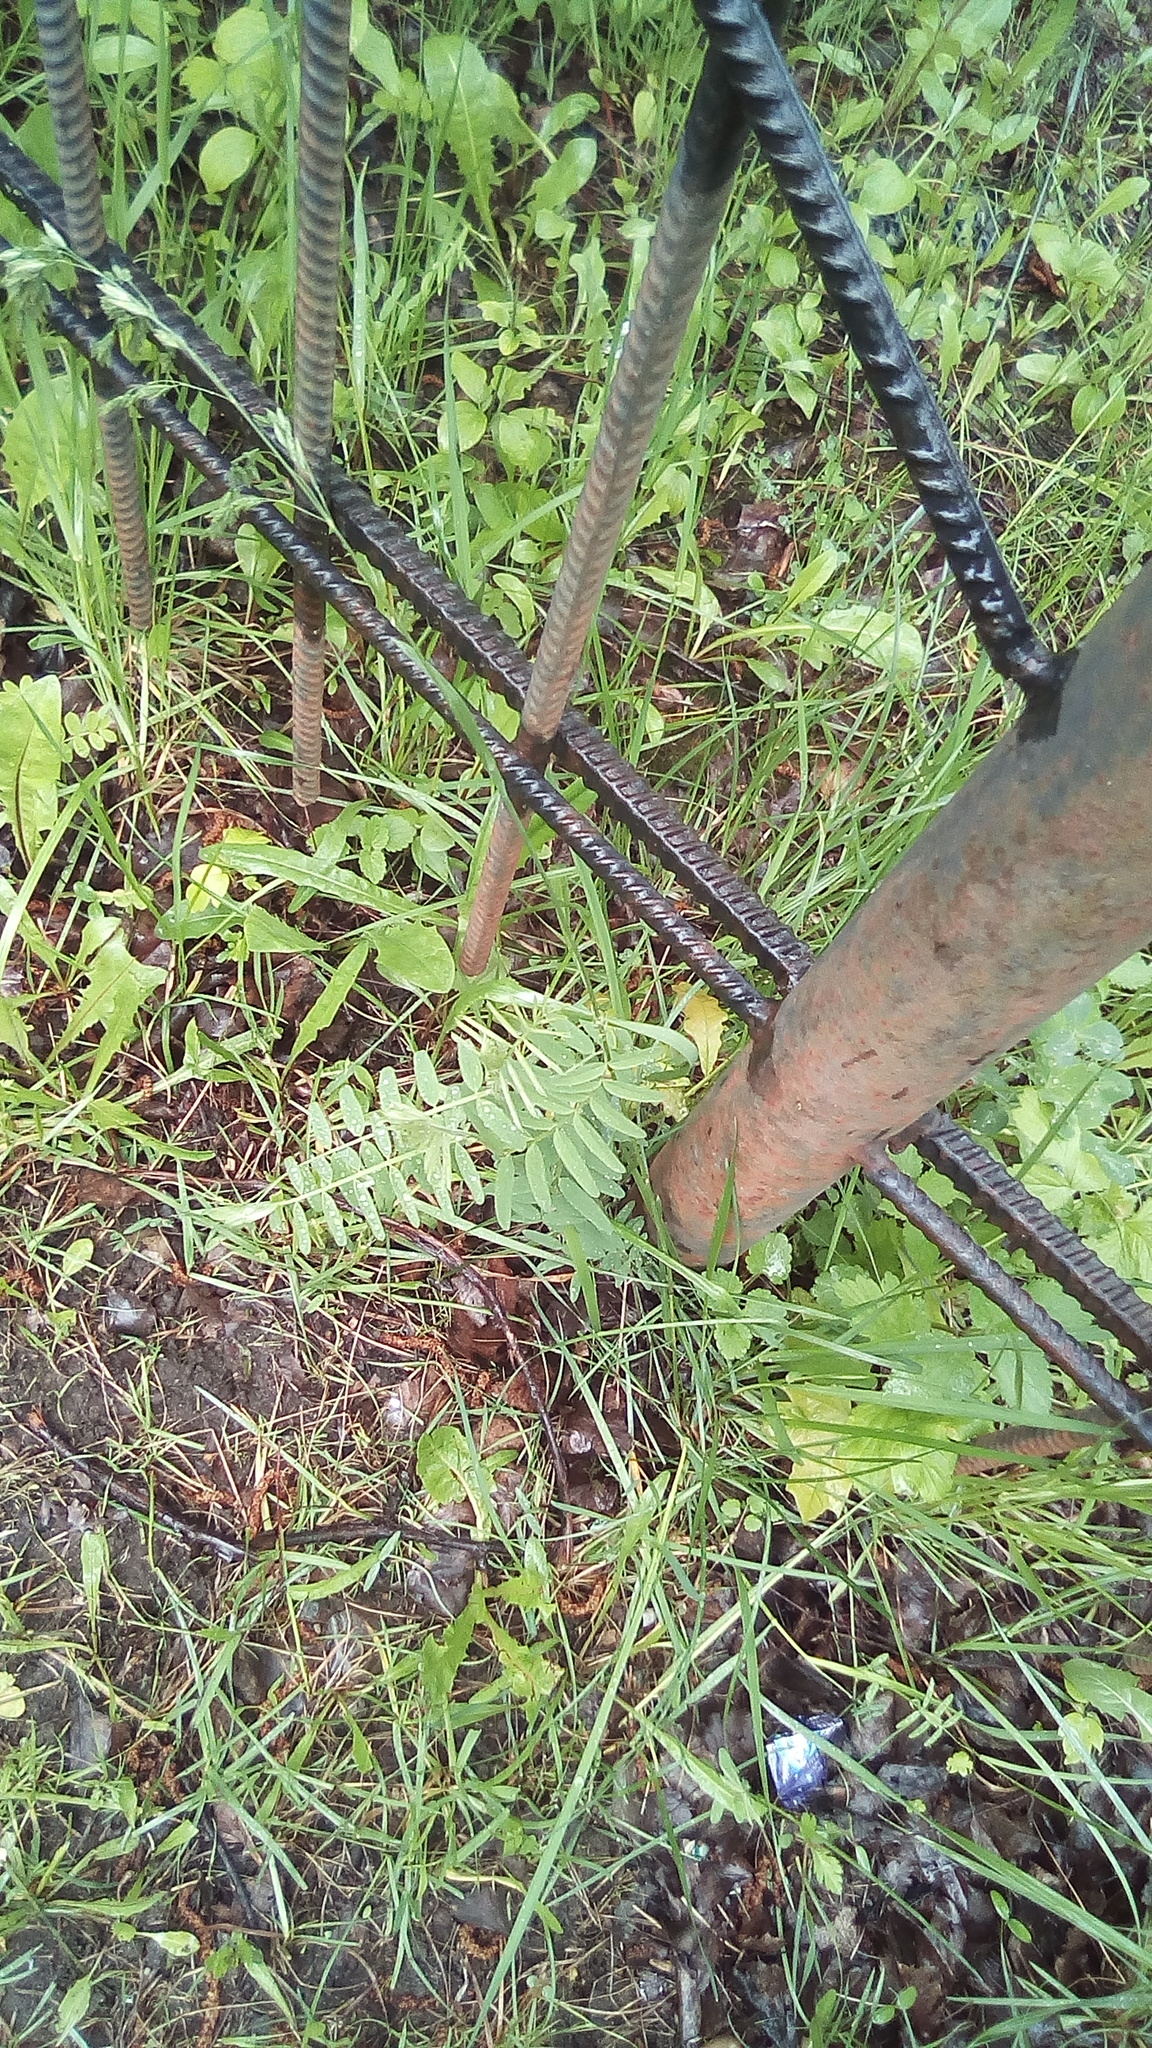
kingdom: Plantae
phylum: Tracheophyta
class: Magnoliopsida
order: Fabales
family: Fabaceae
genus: Vicia
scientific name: Vicia cracca
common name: Bird vetch
